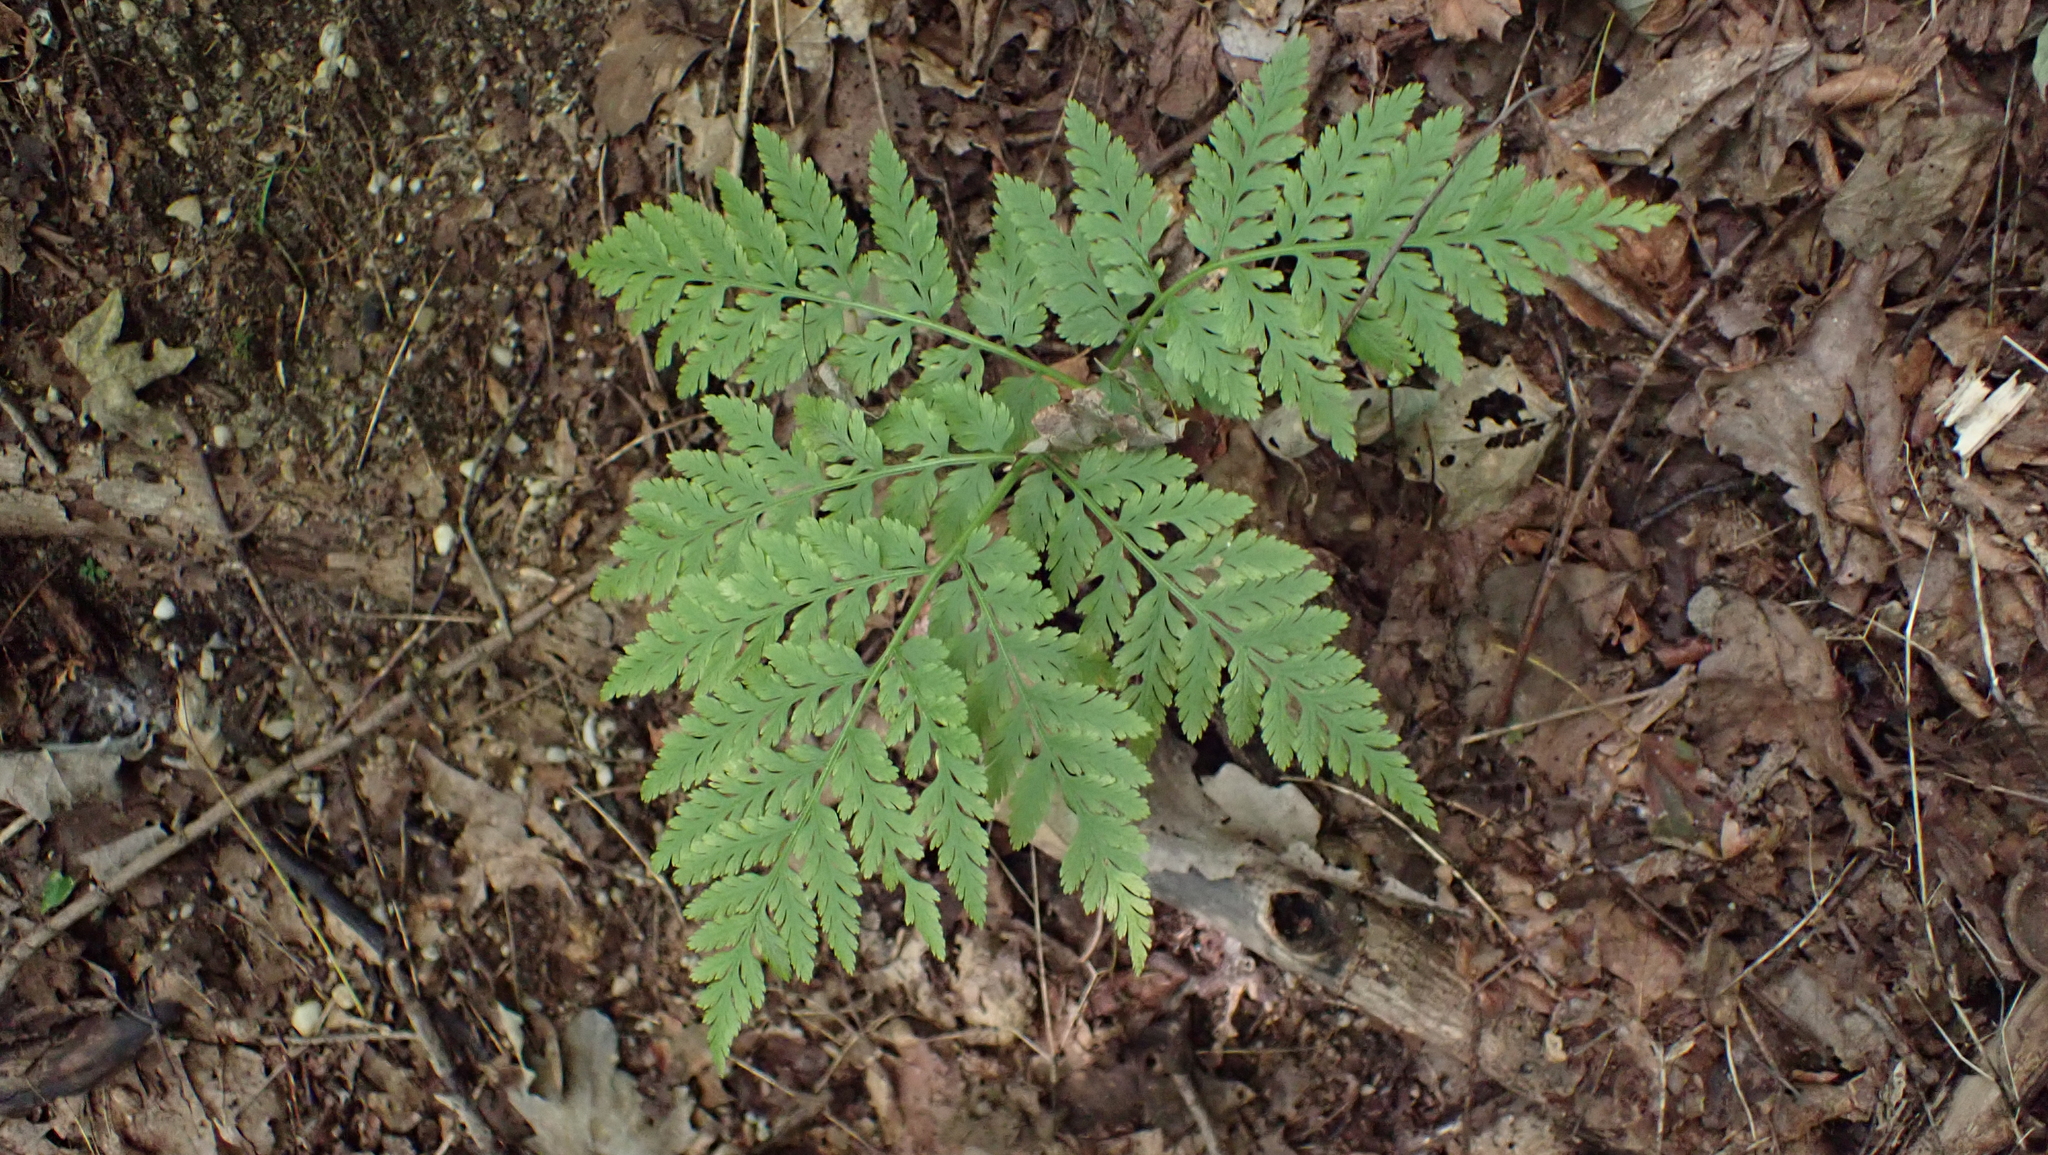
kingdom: Plantae
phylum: Tracheophyta
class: Polypodiopsida
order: Ophioglossales
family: Ophioglossaceae
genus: Botrypus
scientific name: Botrypus virginianus
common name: Common grapefern
